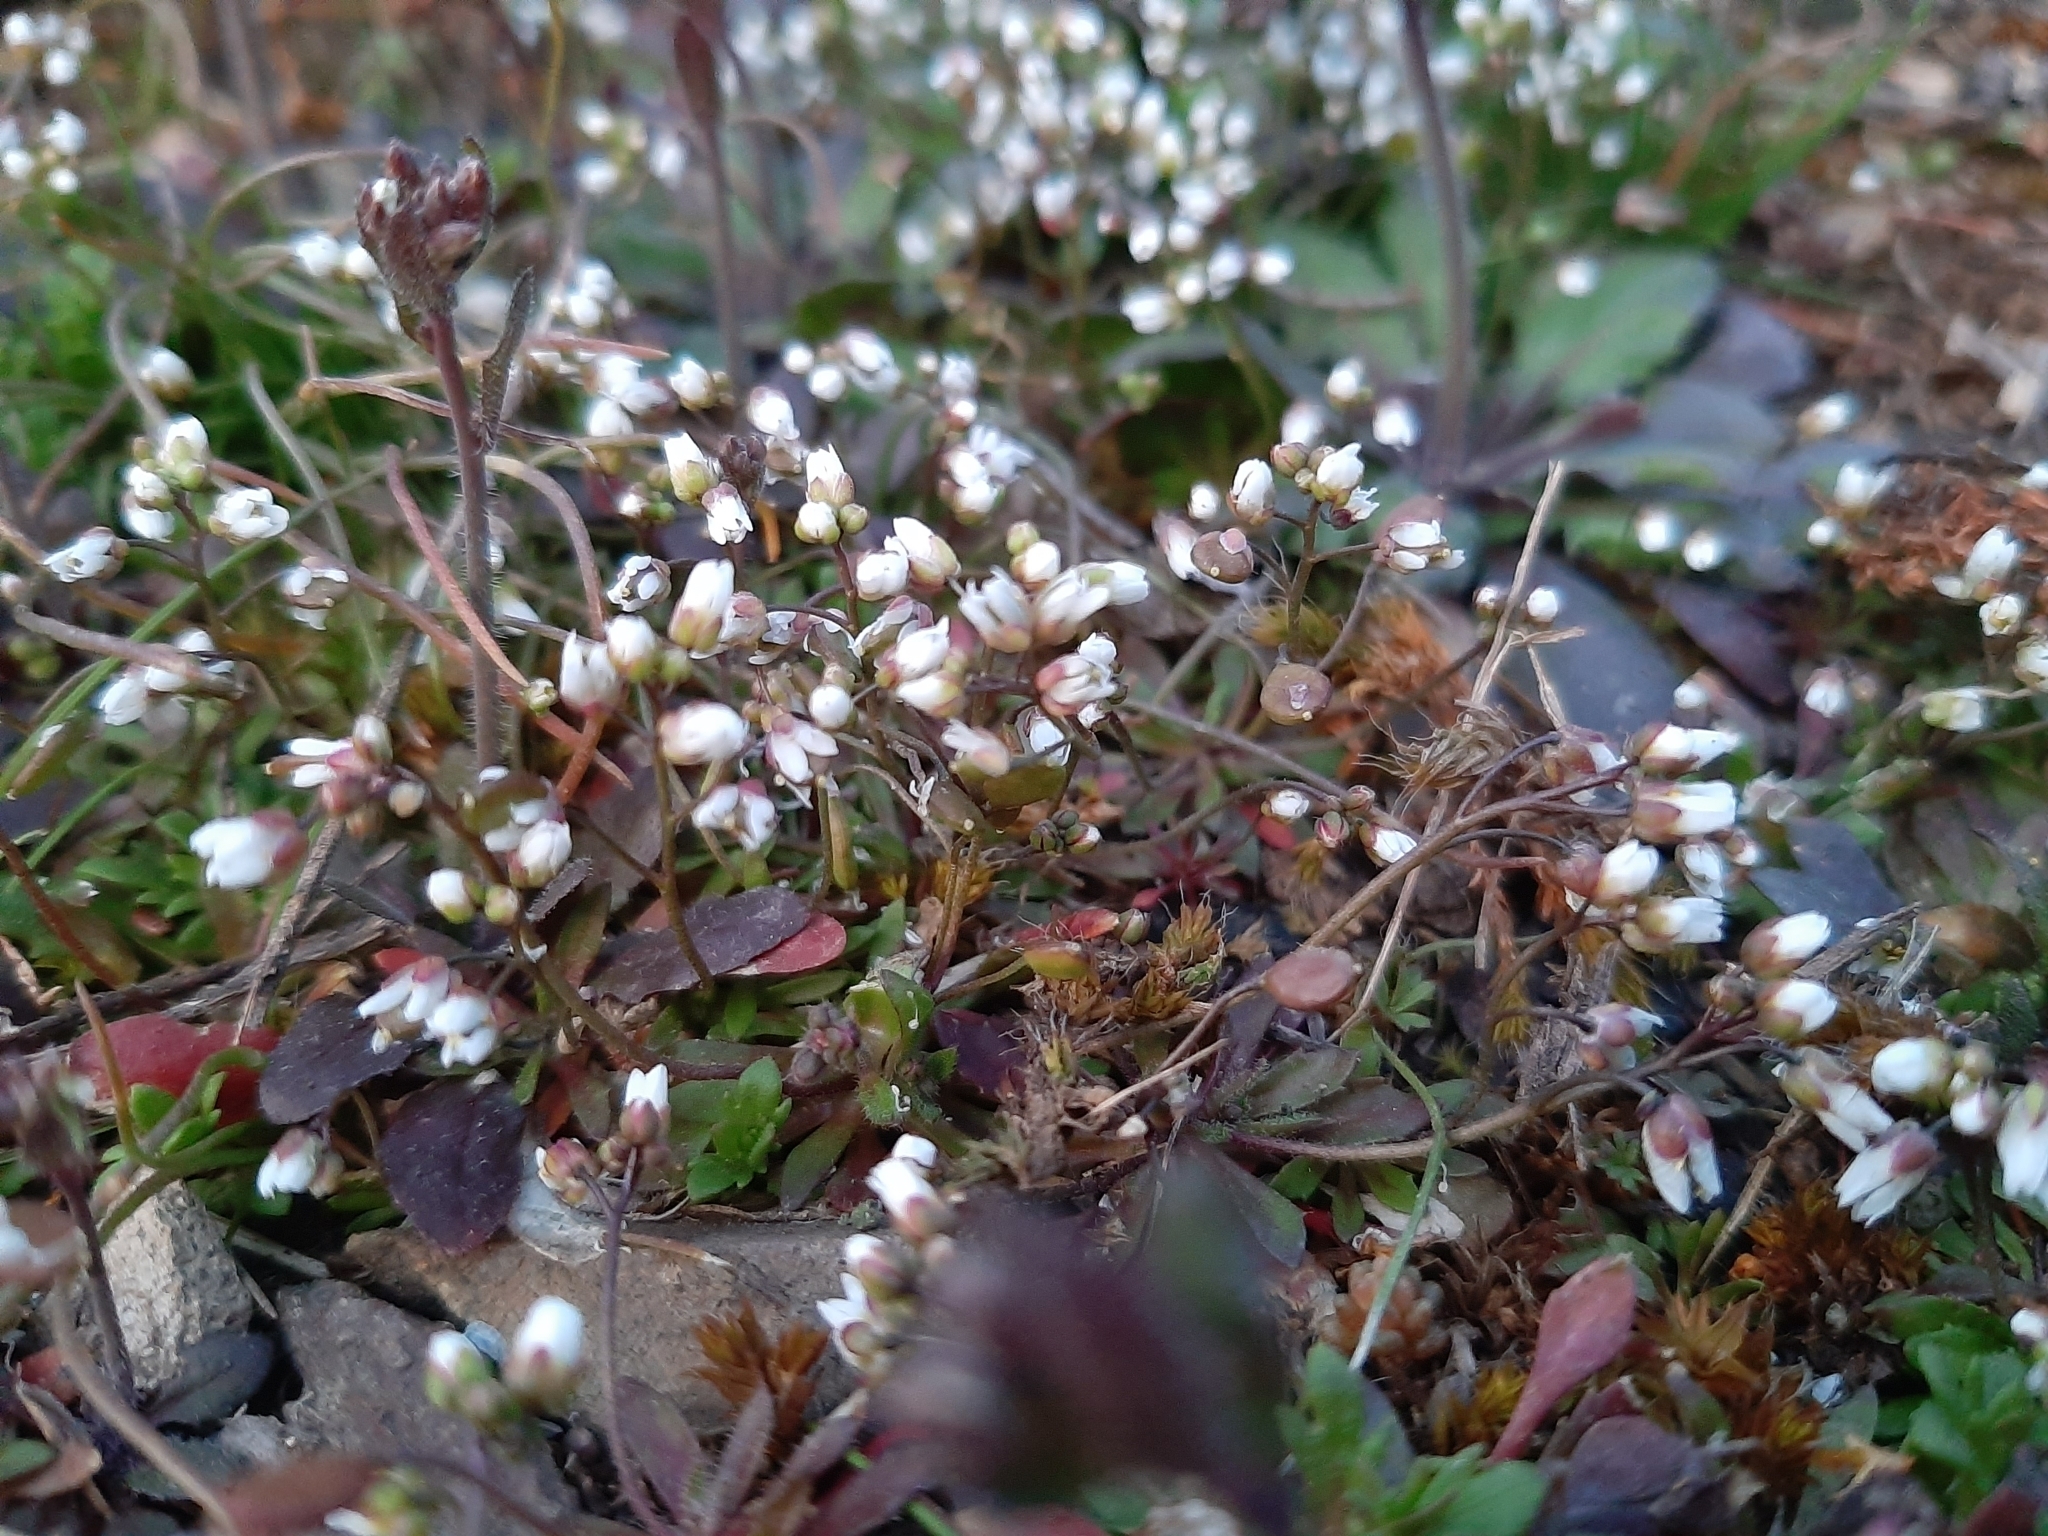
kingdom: Plantae
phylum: Tracheophyta
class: Magnoliopsida
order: Brassicales
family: Brassicaceae
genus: Draba
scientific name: Draba verna
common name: Spring draba
